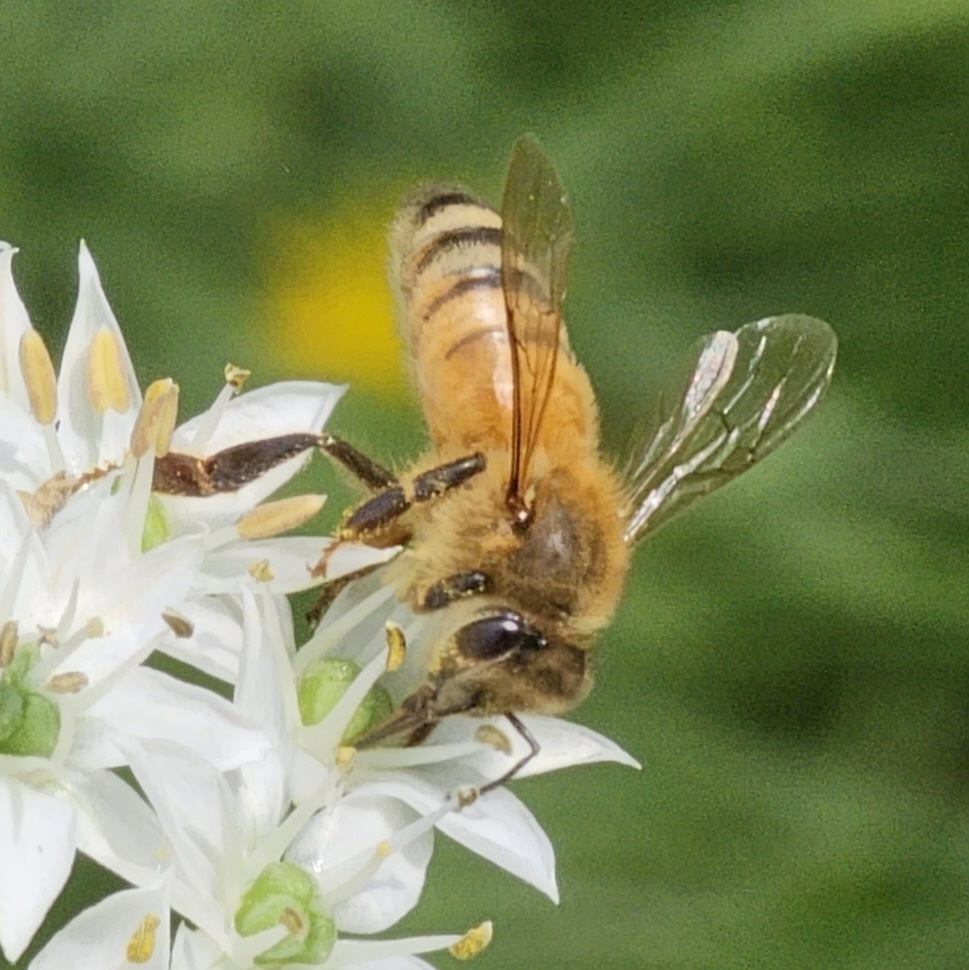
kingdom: Animalia
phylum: Arthropoda
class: Insecta
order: Hymenoptera
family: Apidae
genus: Apis
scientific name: Apis mellifera
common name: Honey bee
